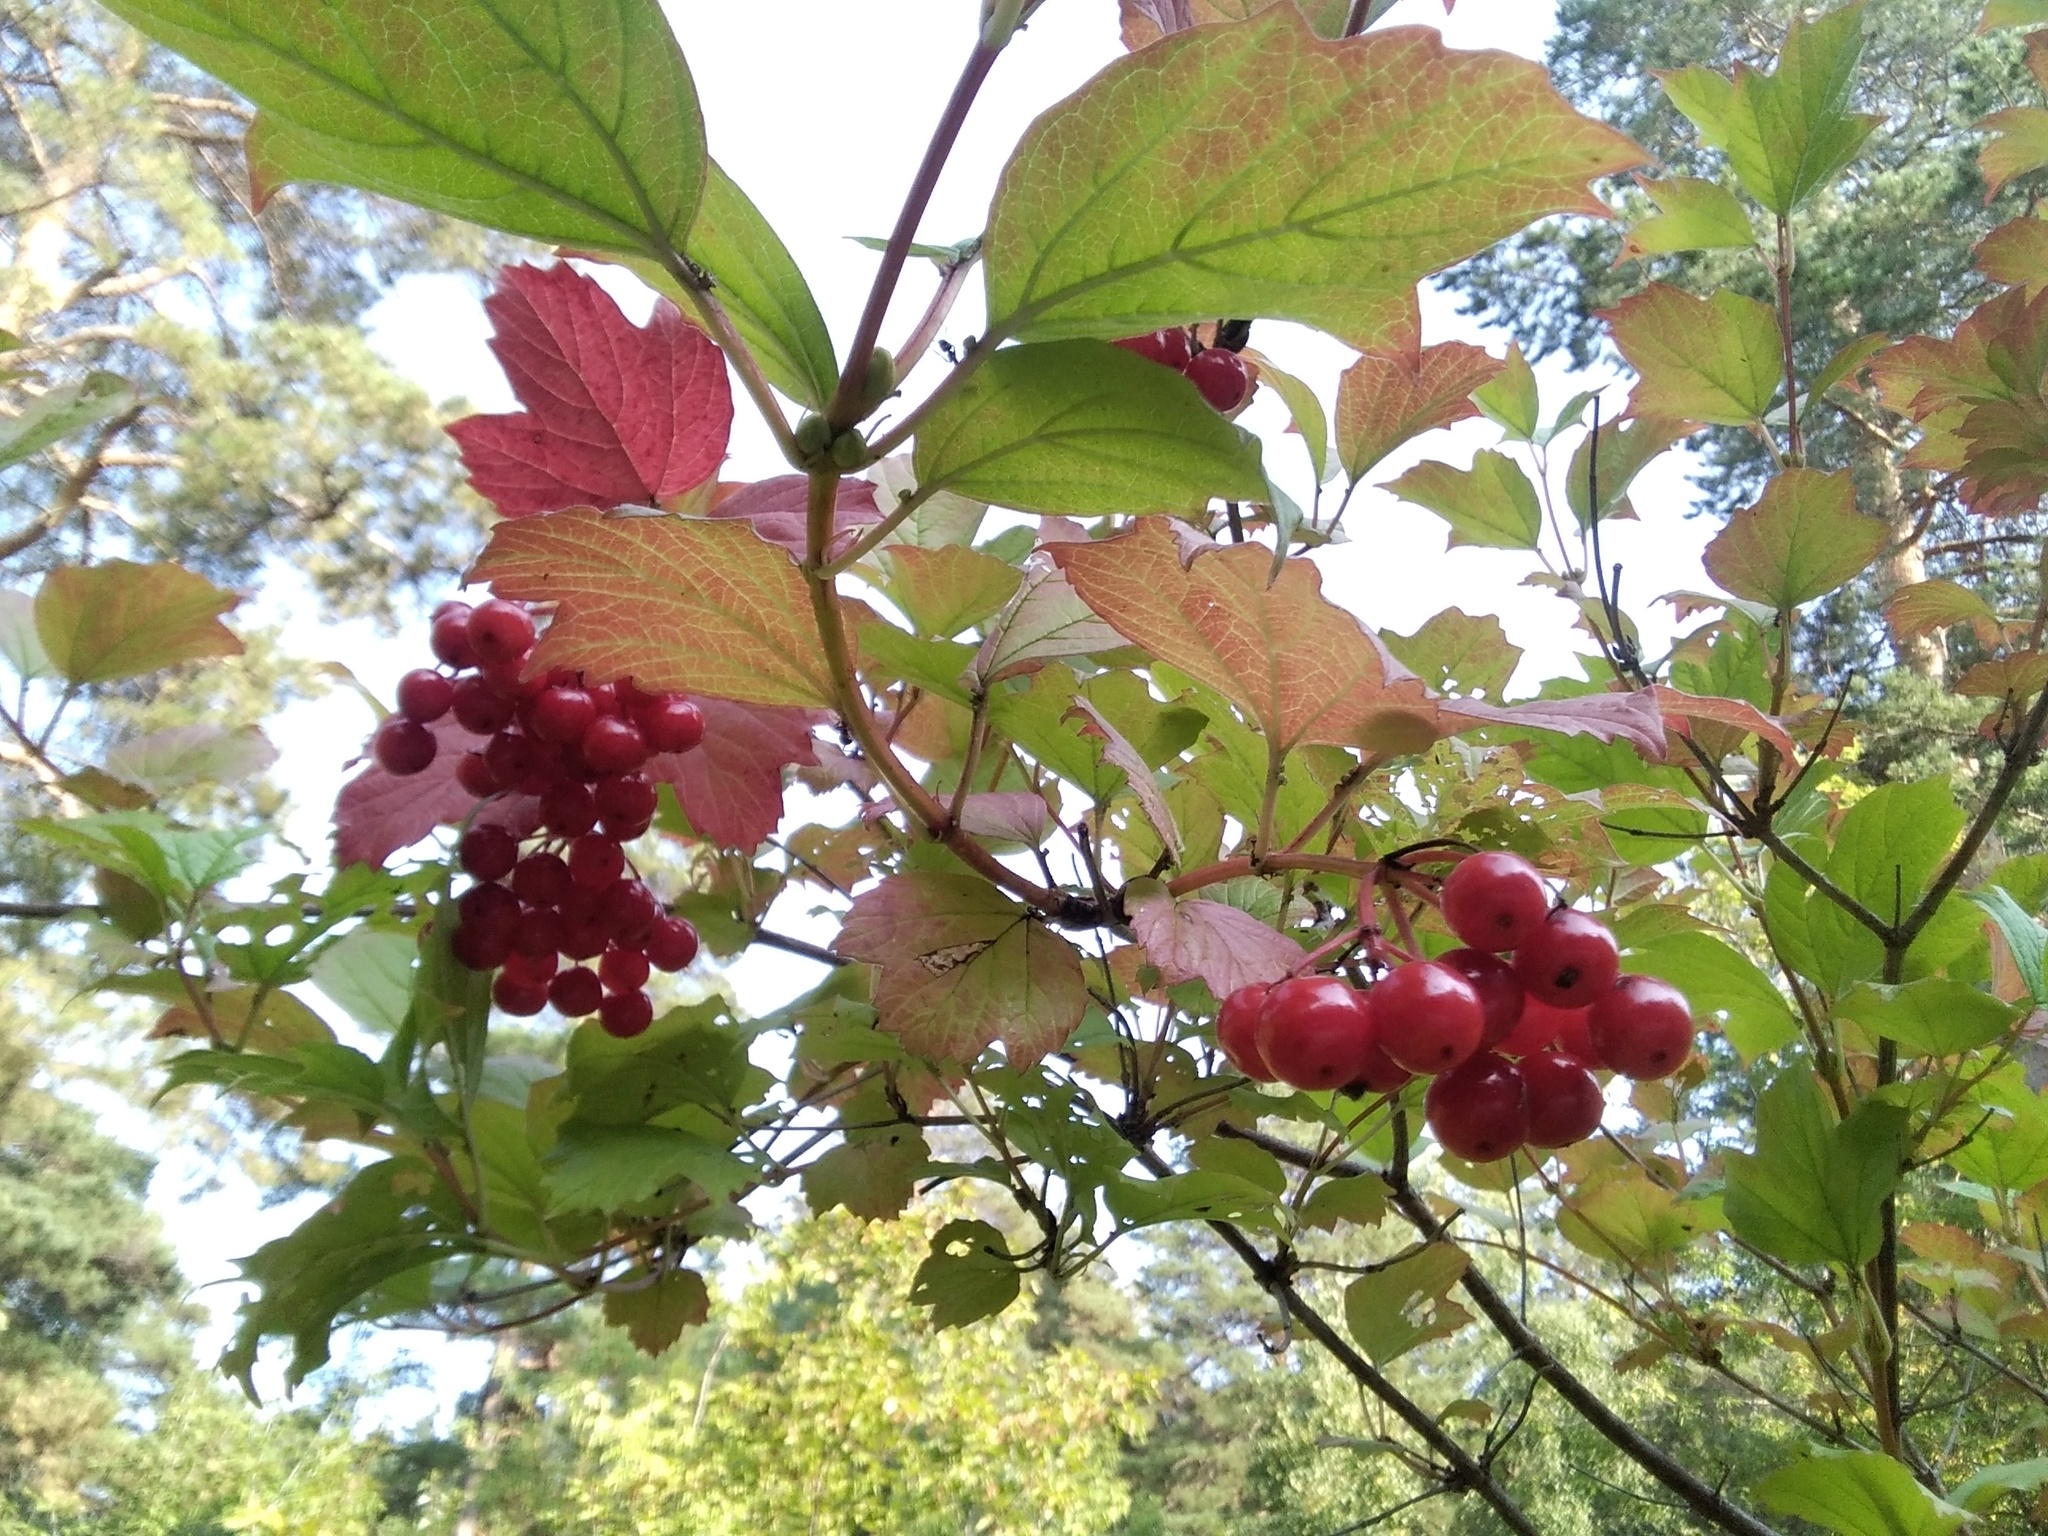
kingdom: Plantae
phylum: Tracheophyta
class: Magnoliopsida
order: Dipsacales
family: Viburnaceae
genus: Viburnum
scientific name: Viburnum opulus
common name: Guelder-rose
